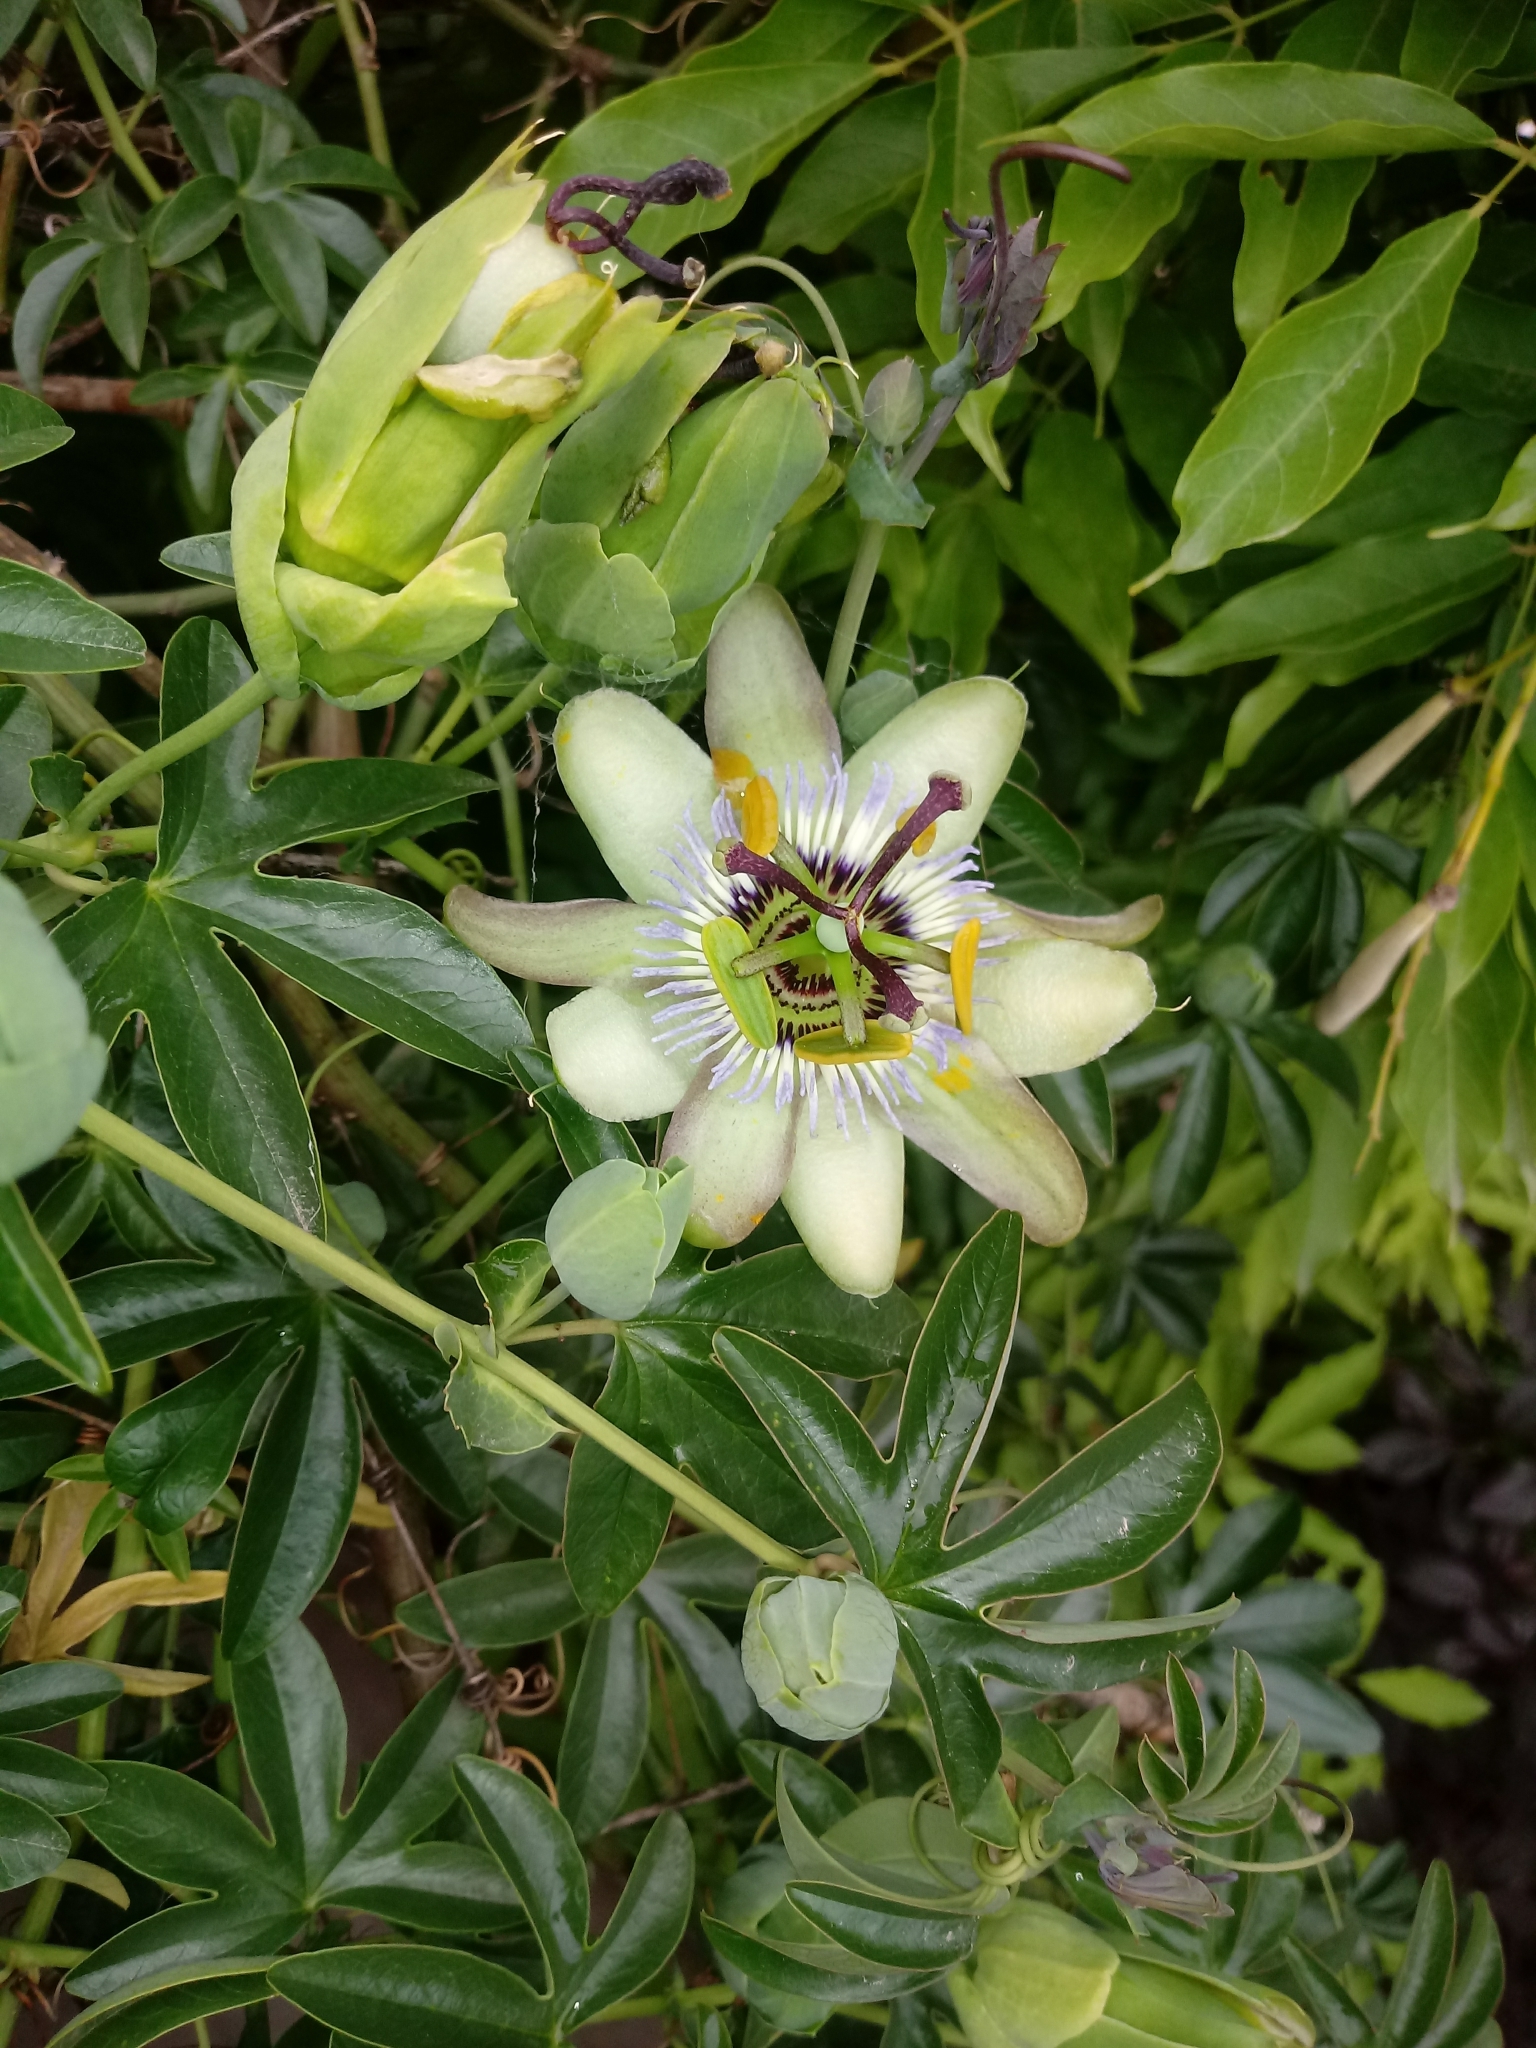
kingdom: Plantae
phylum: Tracheophyta
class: Magnoliopsida
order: Malpighiales
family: Passifloraceae
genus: Passiflora
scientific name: Passiflora caerulea
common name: Blue passionflower
